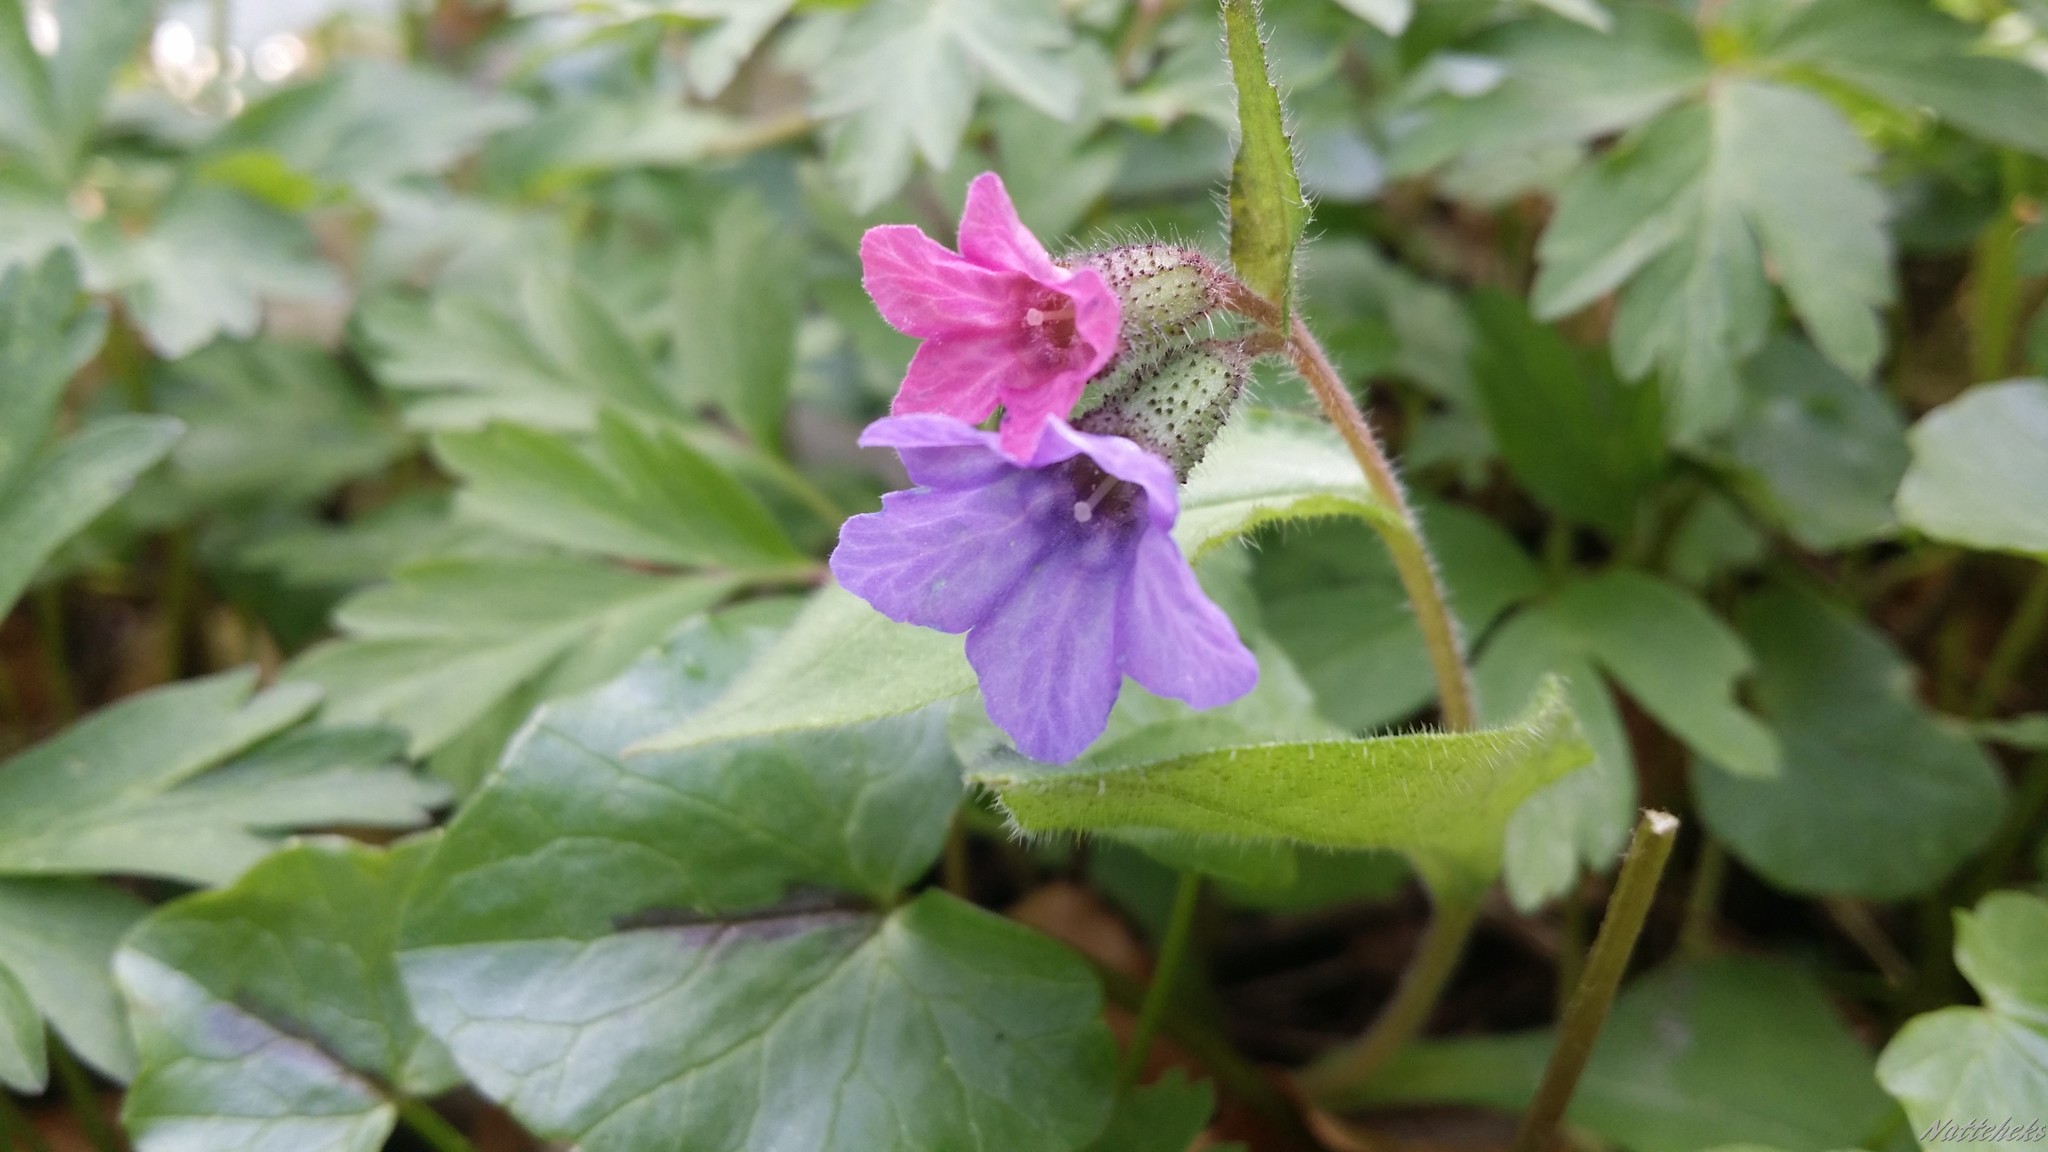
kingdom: Plantae
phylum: Tracheophyta
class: Magnoliopsida
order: Boraginales
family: Boraginaceae
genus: Pulmonaria
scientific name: Pulmonaria obscura
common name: Suffolk lungwort
